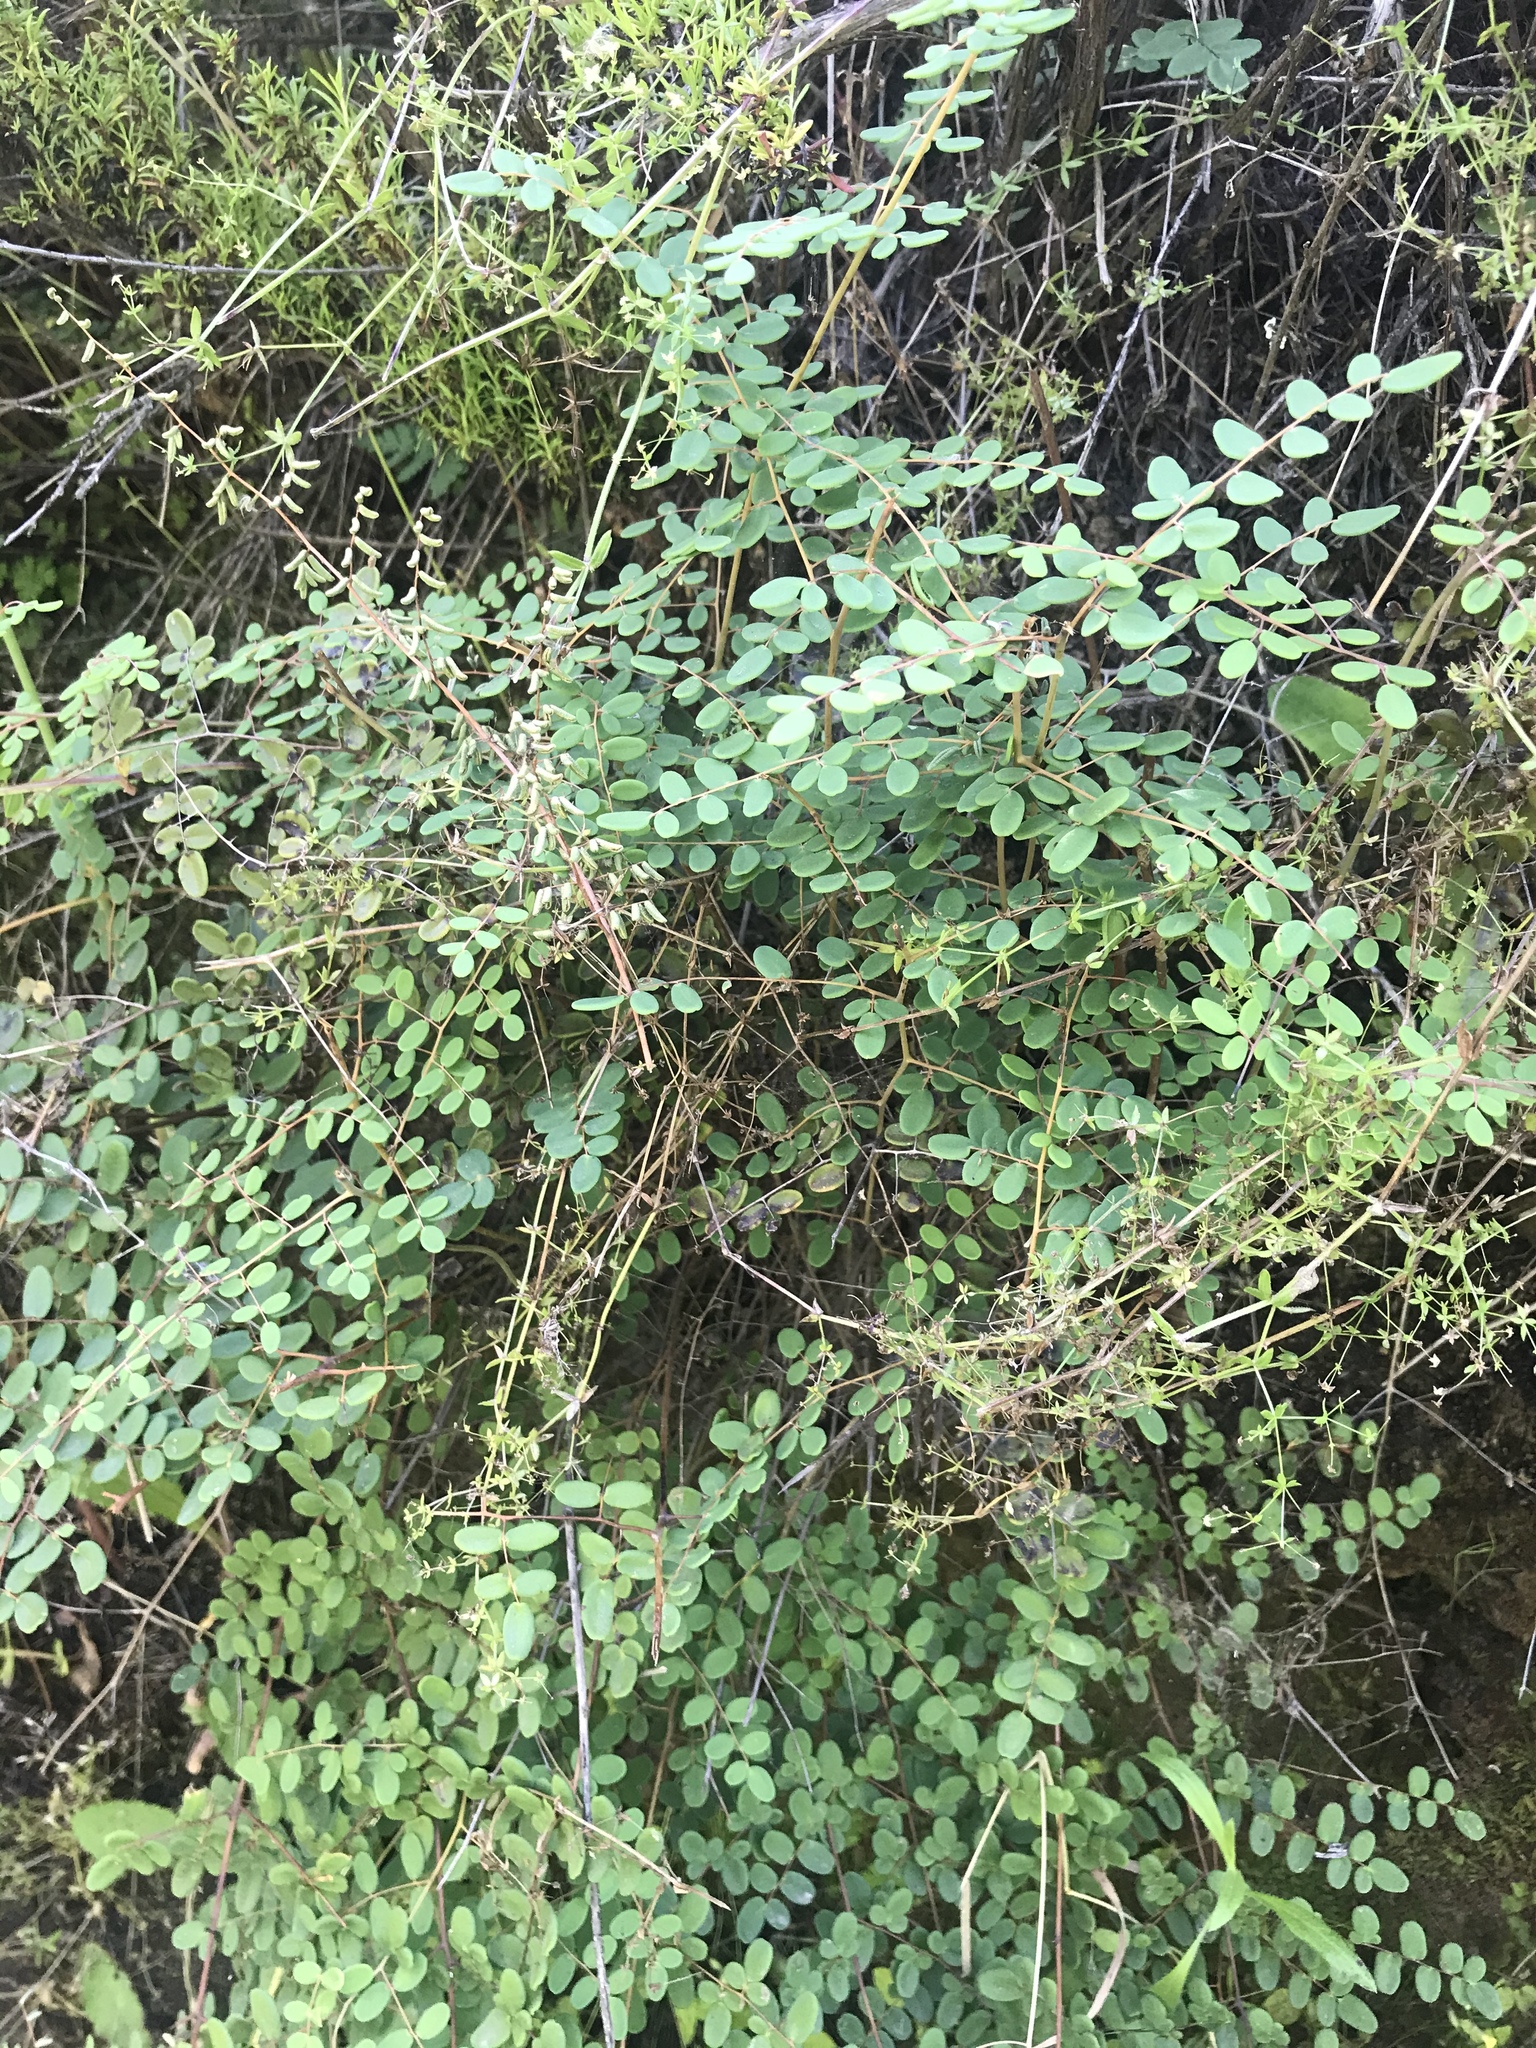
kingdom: Plantae
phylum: Tracheophyta
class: Polypodiopsida
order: Polypodiales
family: Pteridaceae
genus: Pellaea
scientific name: Pellaea andromedifolia
